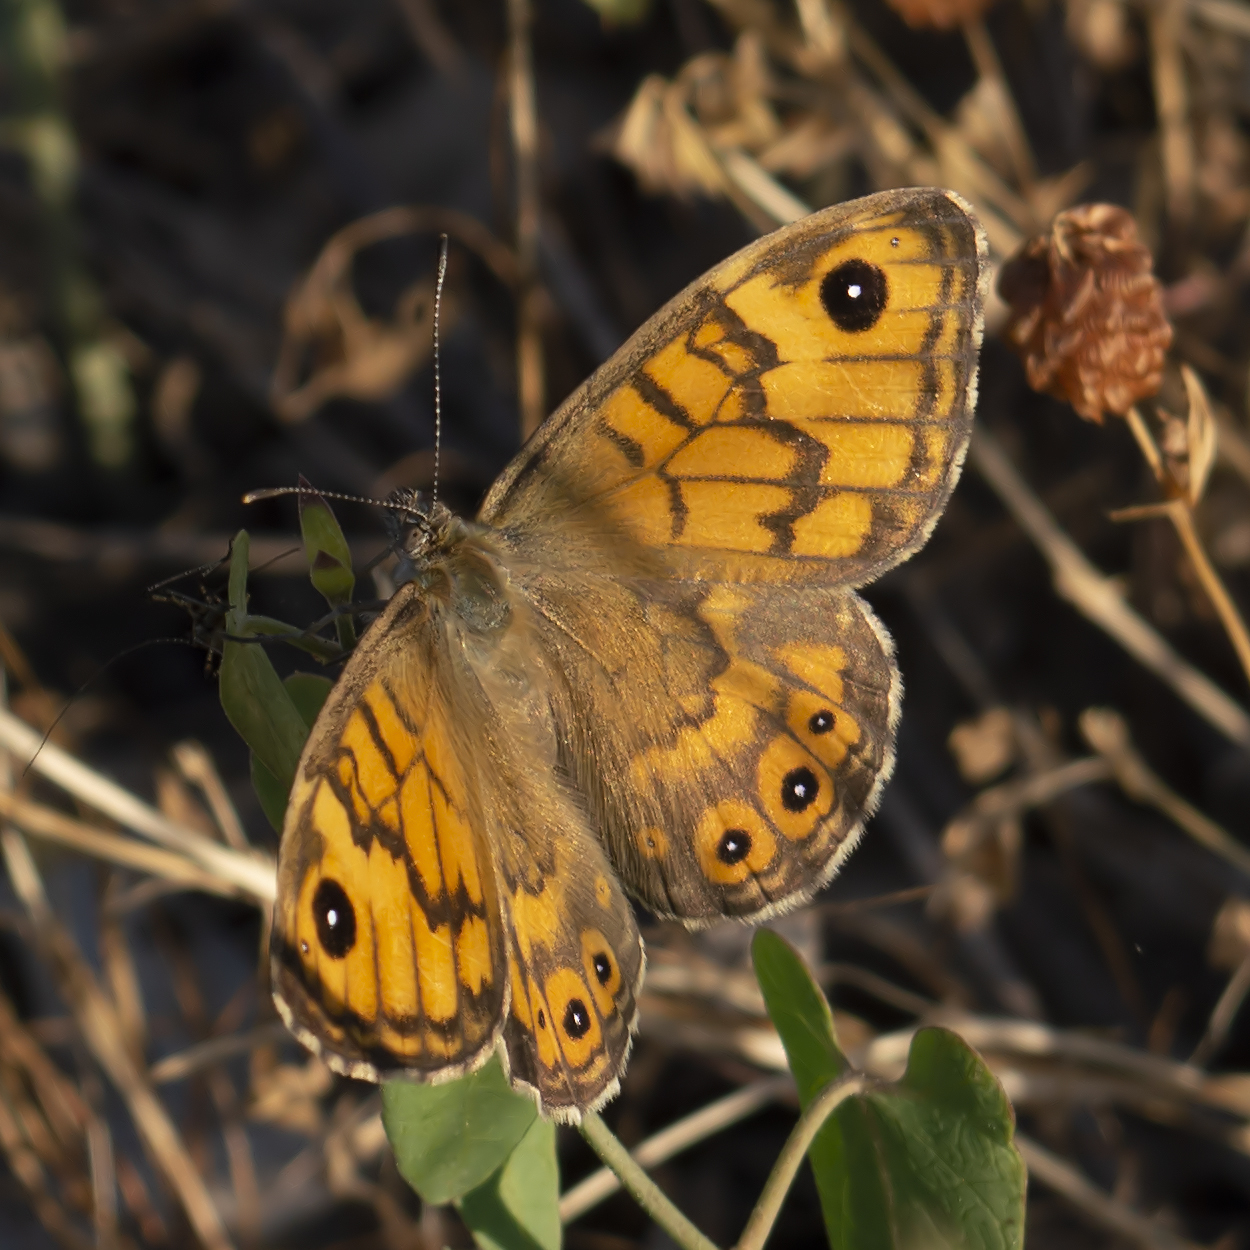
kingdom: Animalia
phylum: Arthropoda
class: Insecta
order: Lepidoptera
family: Nymphalidae
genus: Pararge
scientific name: Pararge Lasiommata megera
